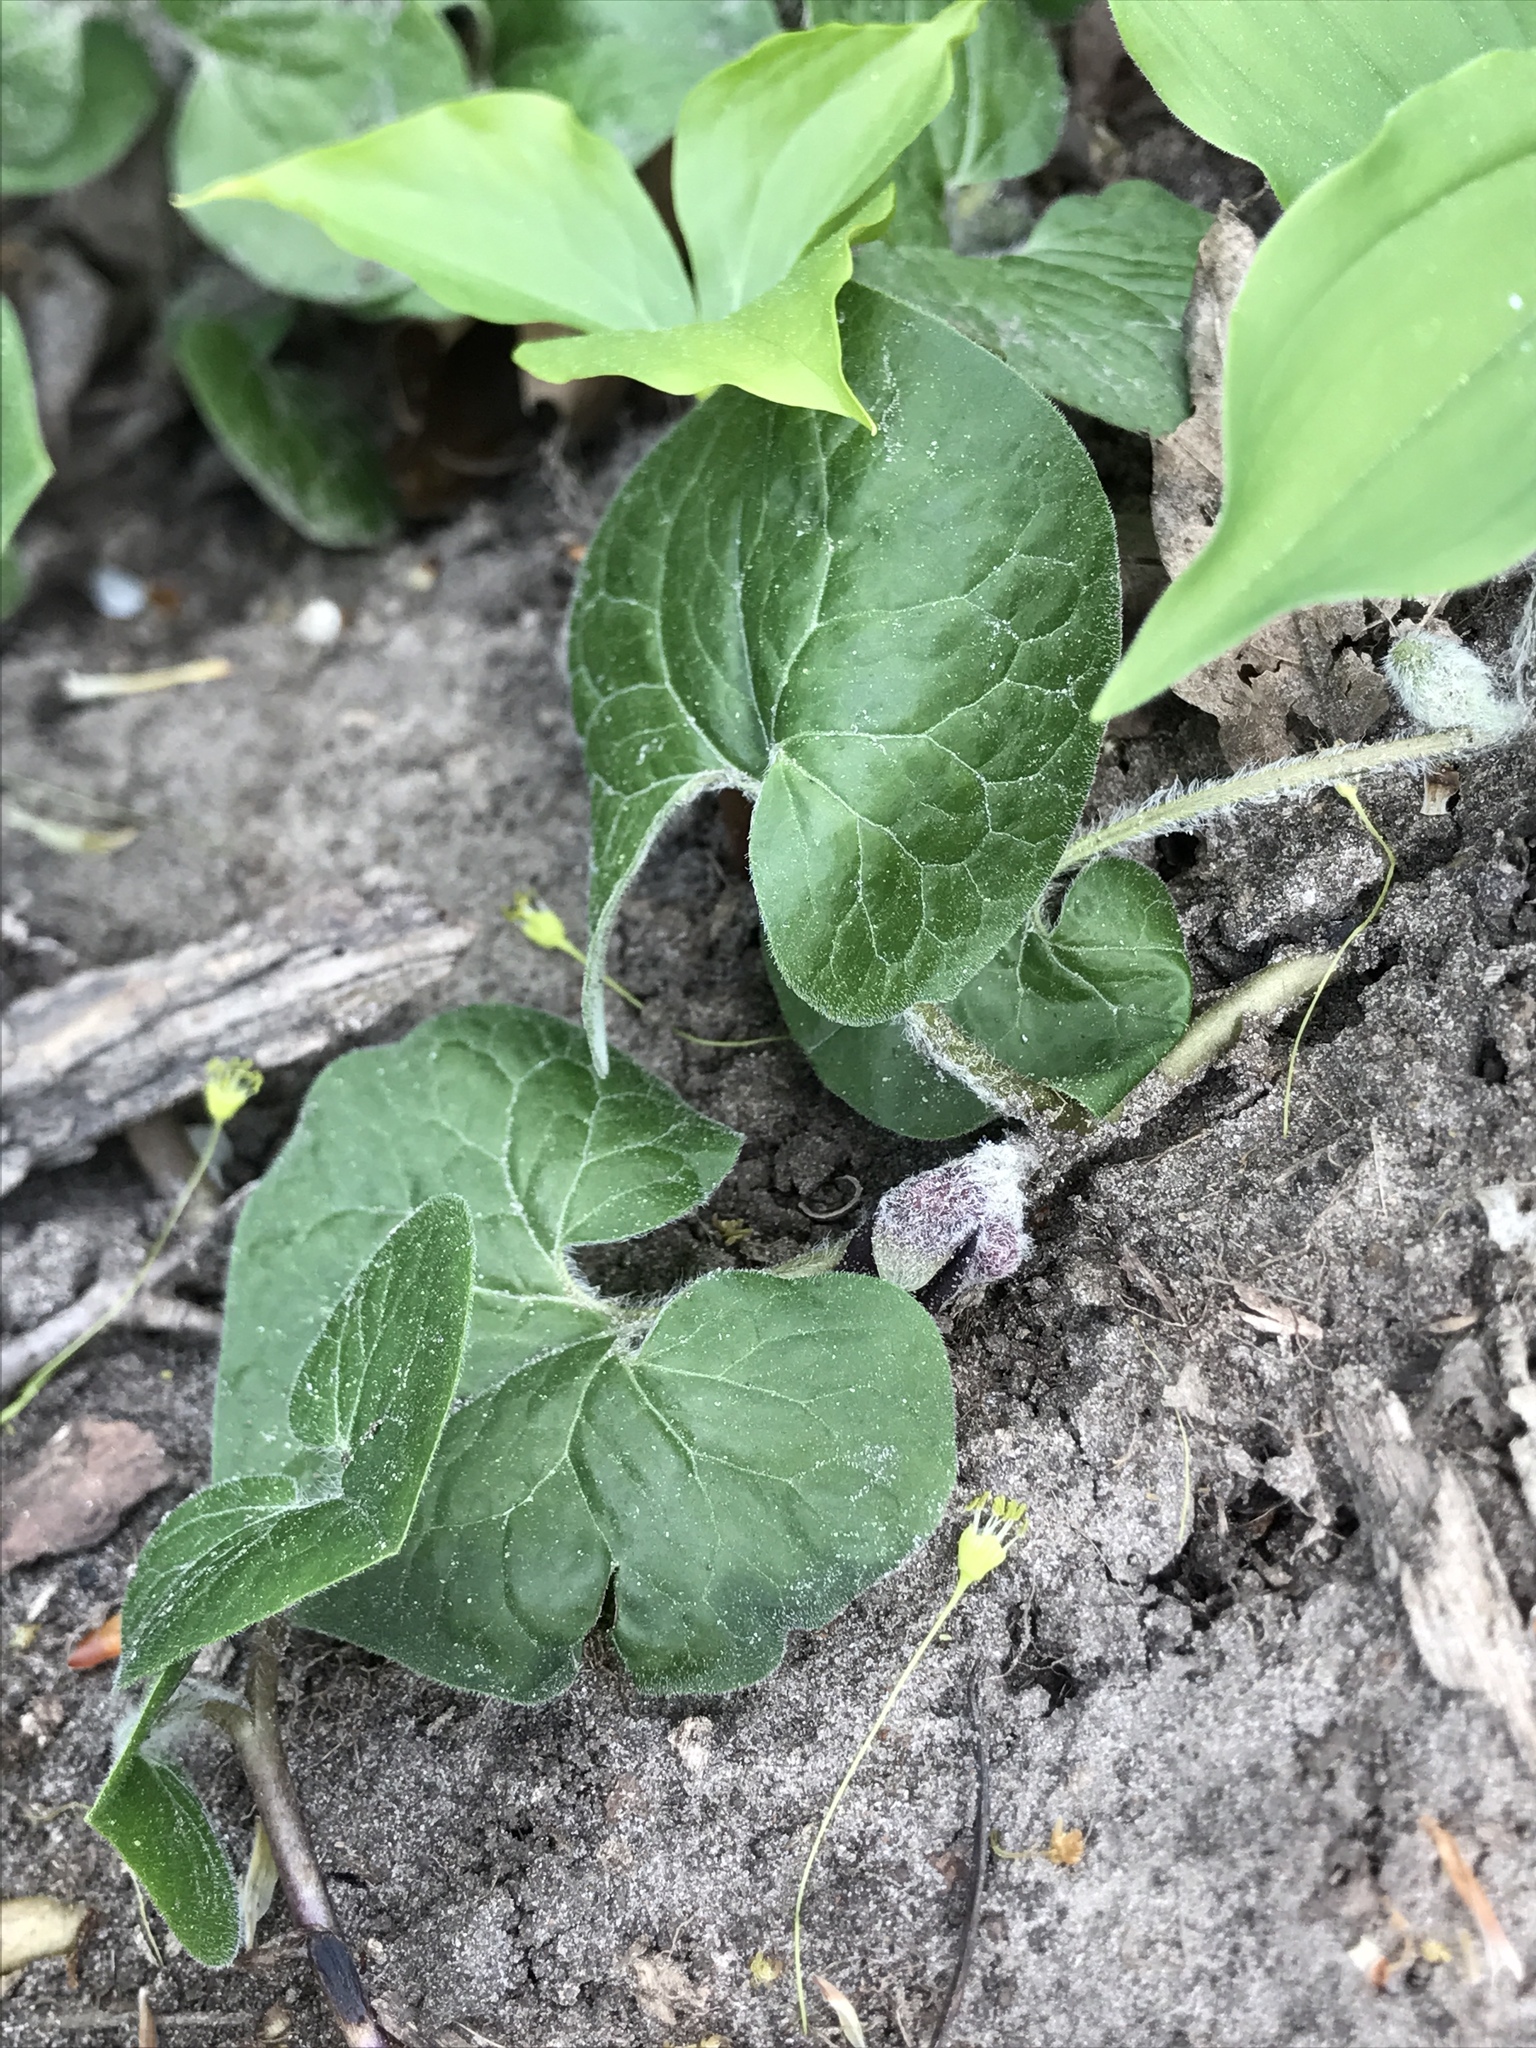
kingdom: Plantae
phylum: Tracheophyta
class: Magnoliopsida
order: Piperales
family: Aristolochiaceae
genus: Asarum
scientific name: Asarum canadense
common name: Wild ginger
